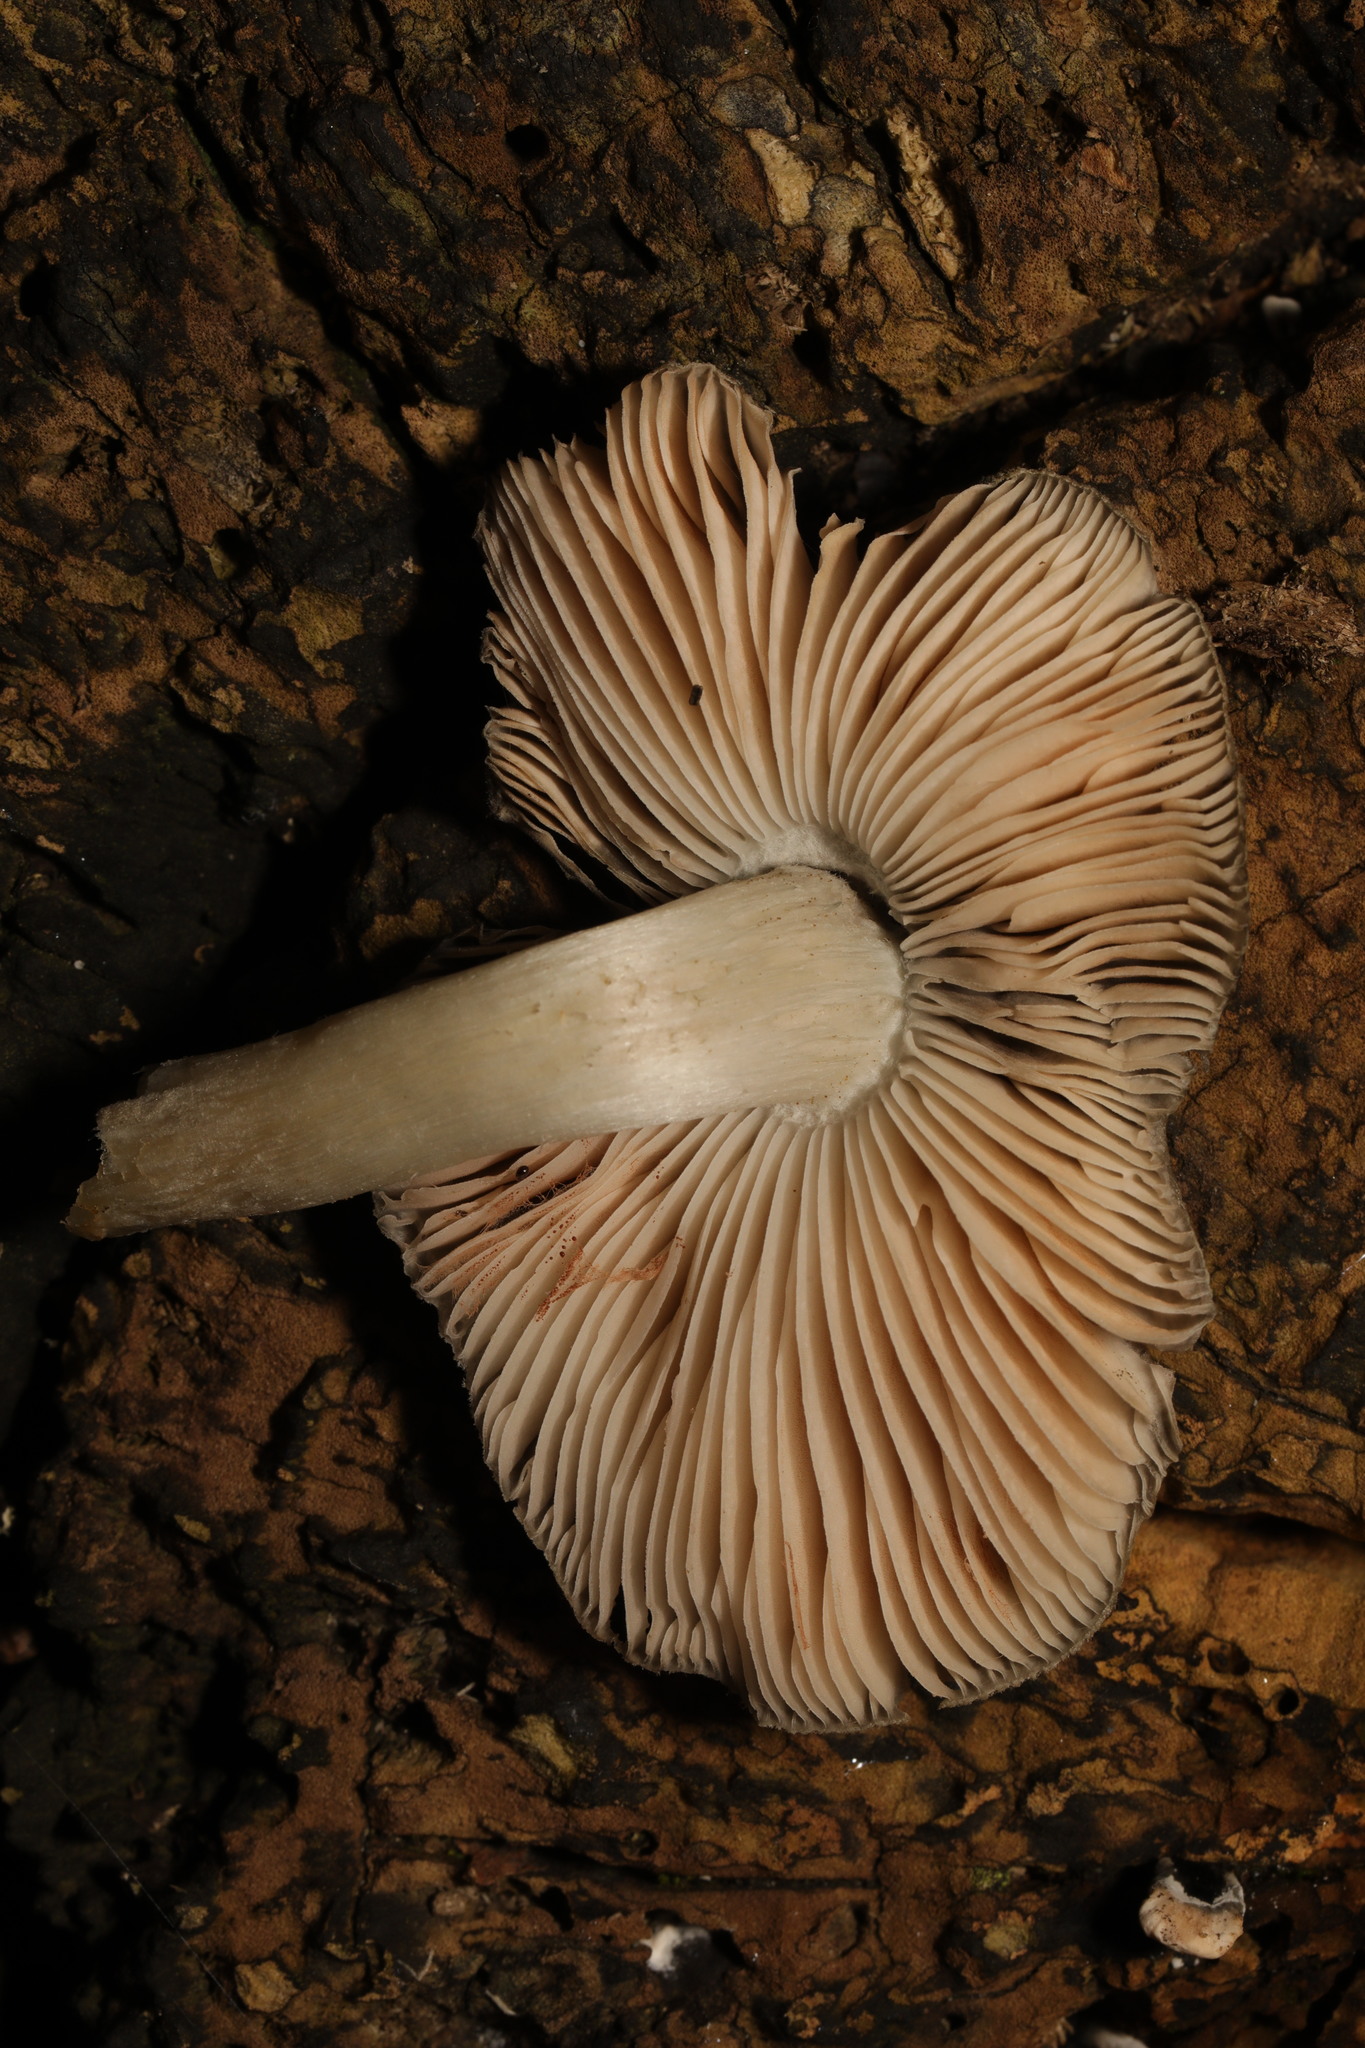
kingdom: Fungi
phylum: Basidiomycota
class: Agaricomycetes
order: Agaricales
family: Pleurotaceae
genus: Pleurotus
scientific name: Pleurotus ostreatus
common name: Oyster mushroom
